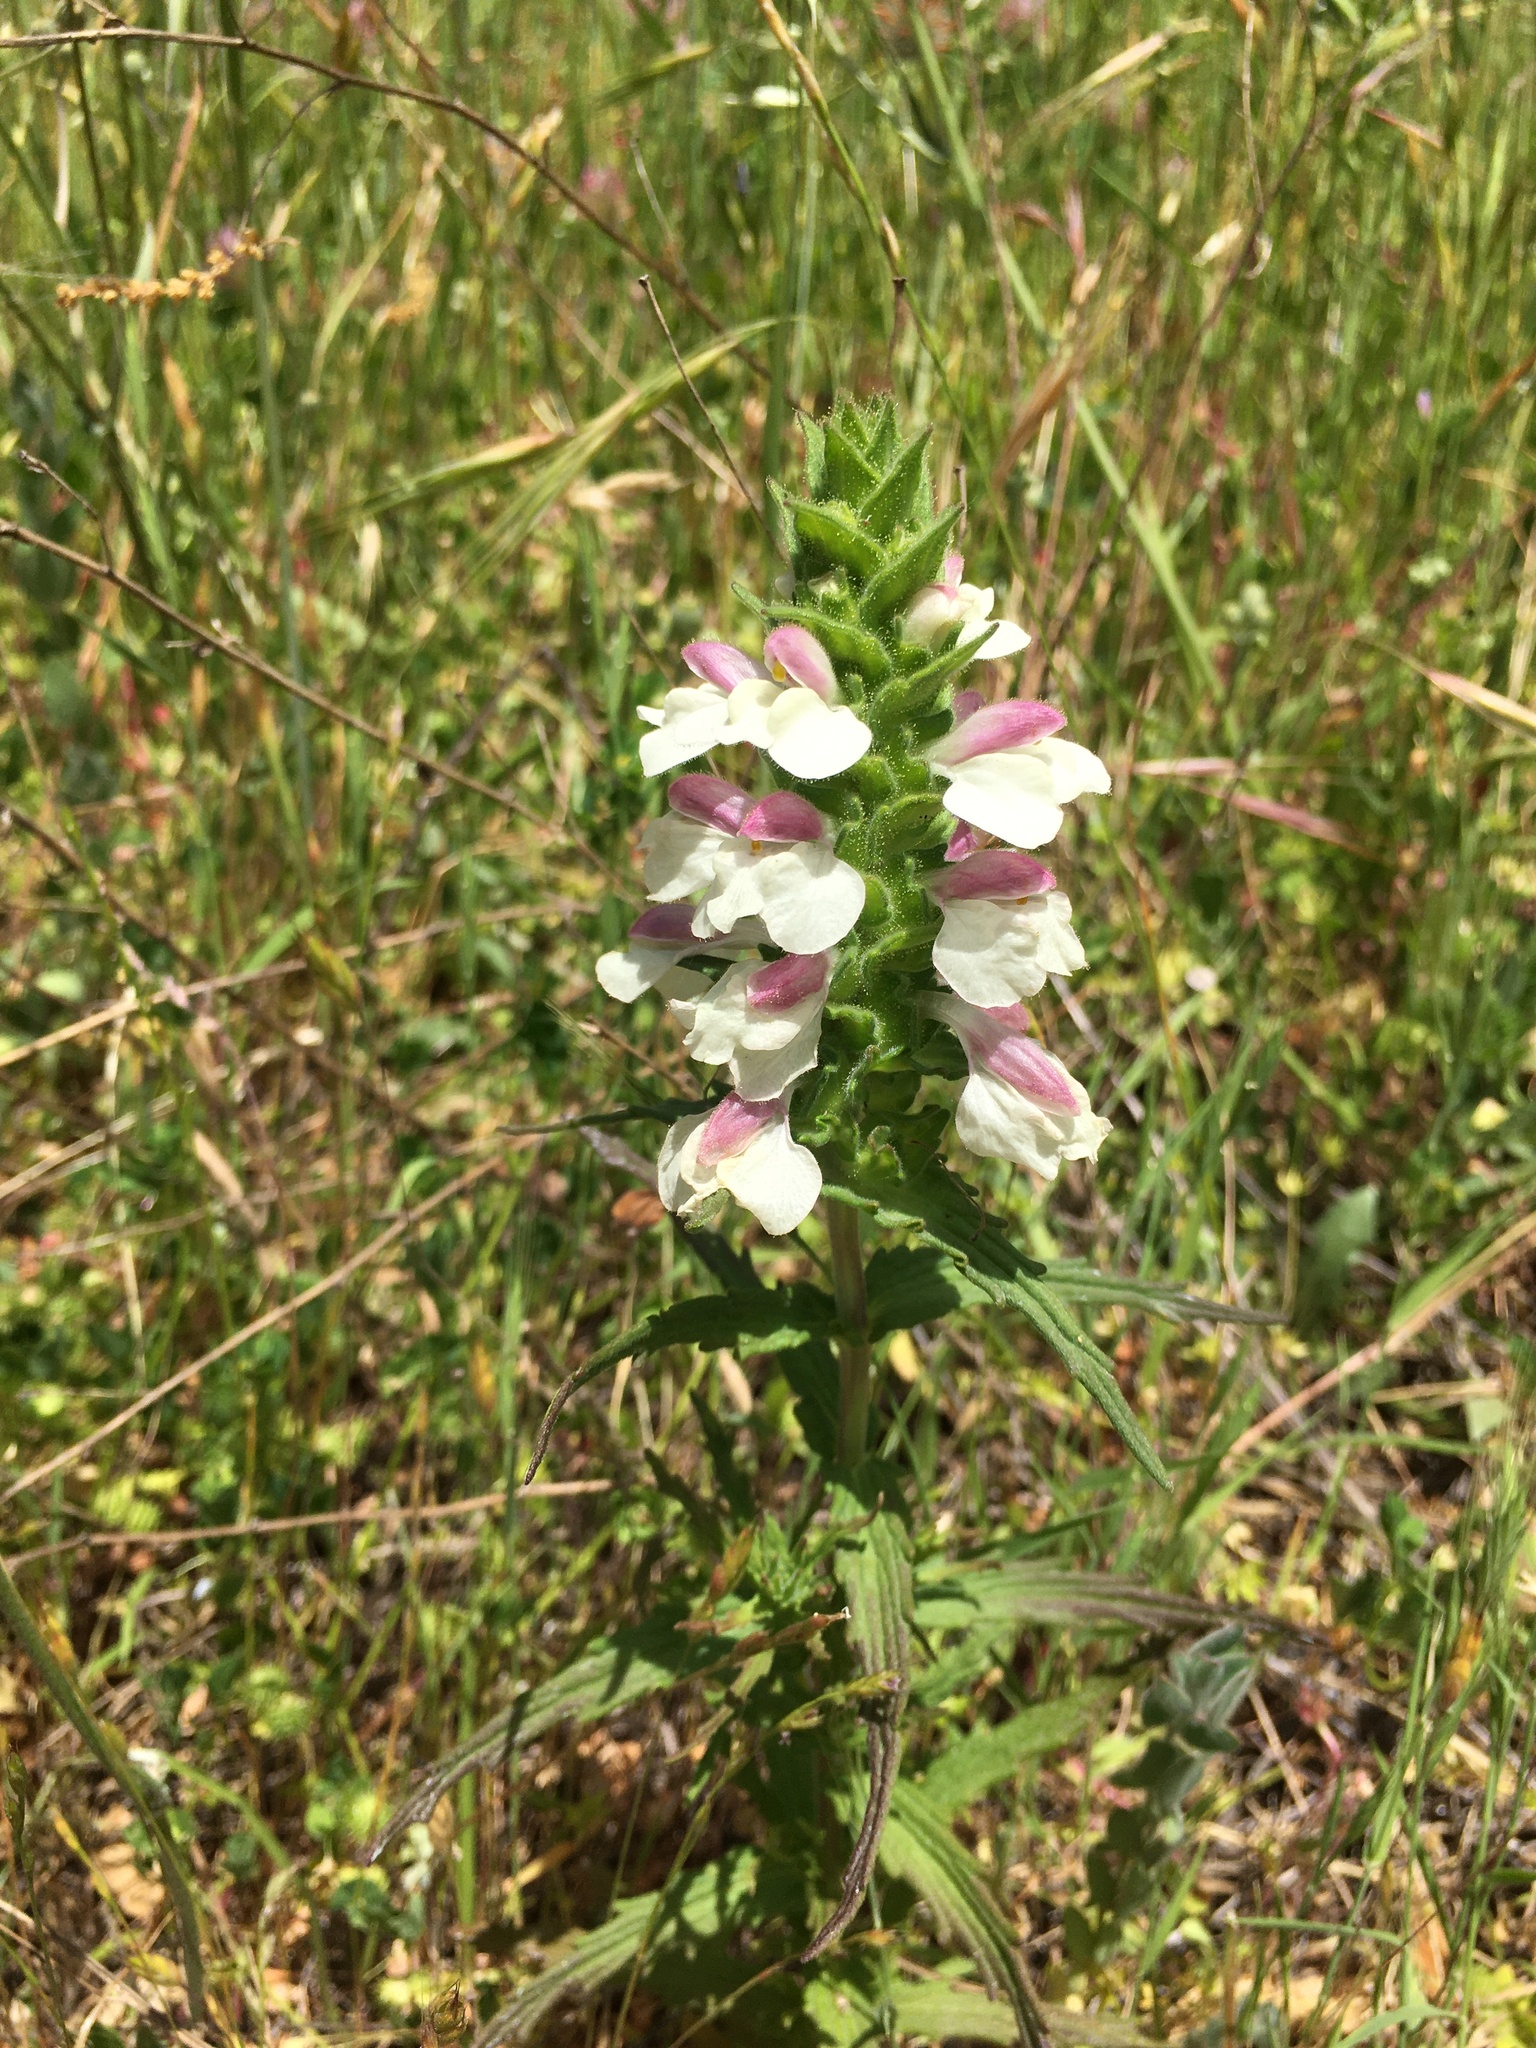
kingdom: Plantae
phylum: Tracheophyta
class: Magnoliopsida
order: Lamiales
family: Orobanchaceae
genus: Bellardia
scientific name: Bellardia trixago
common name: Mediterranean lineseed
